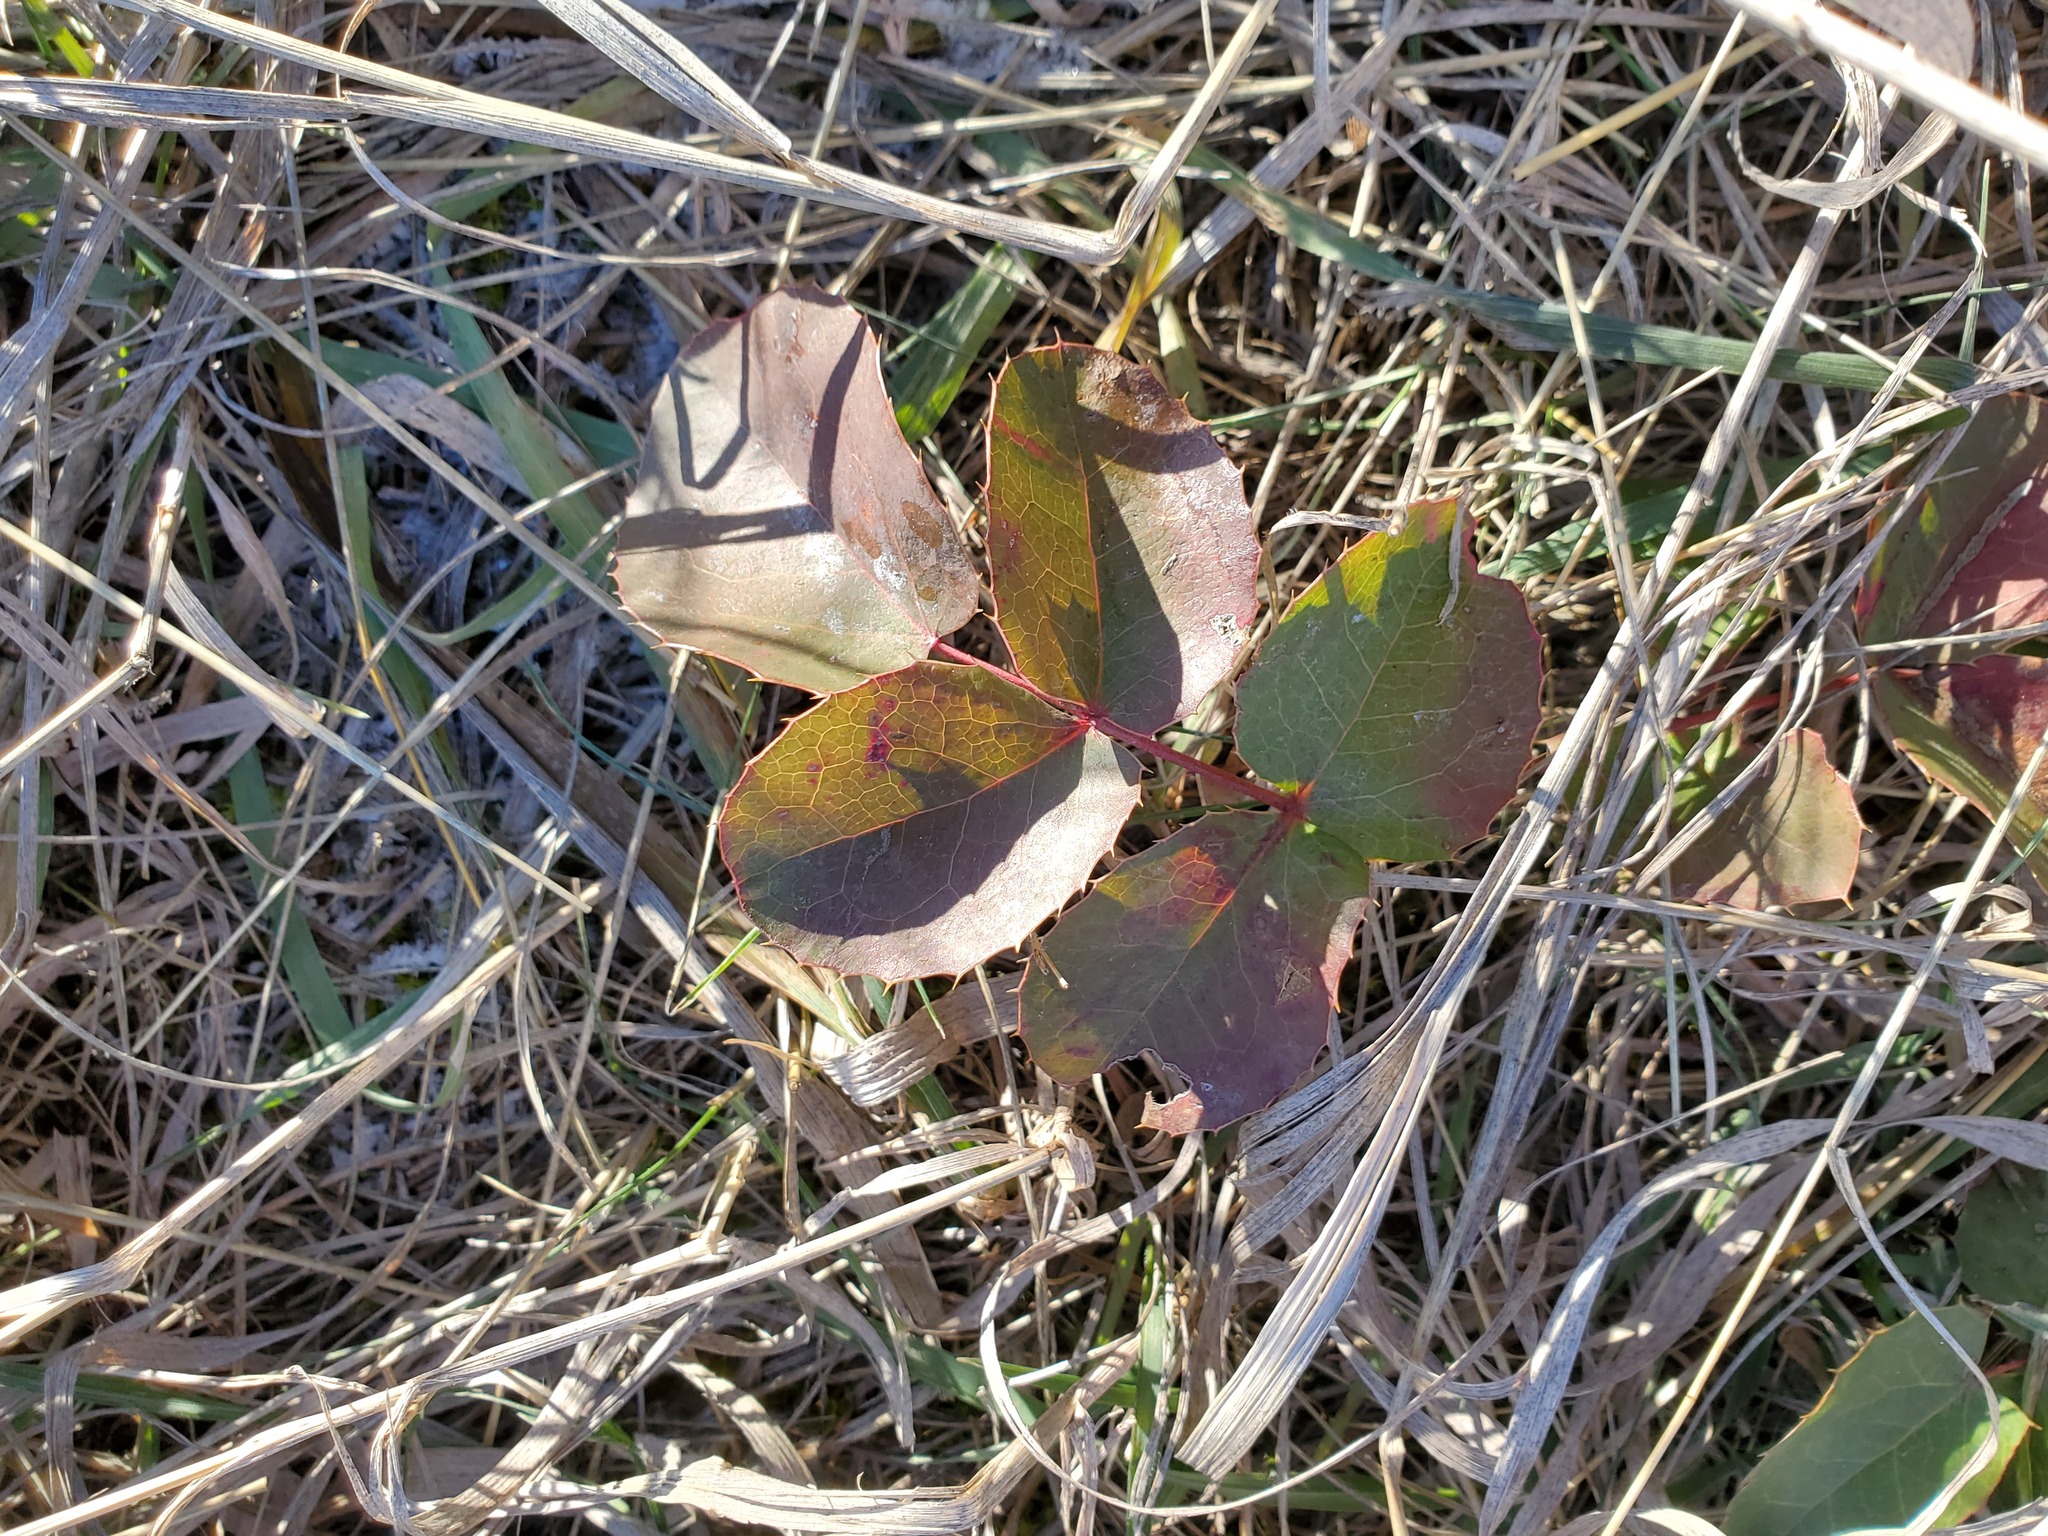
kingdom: Plantae
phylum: Tracheophyta
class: Magnoliopsida
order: Ranunculales
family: Berberidaceae
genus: Mahonia
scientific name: Mahonia repens
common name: Creeping oregon-grape
